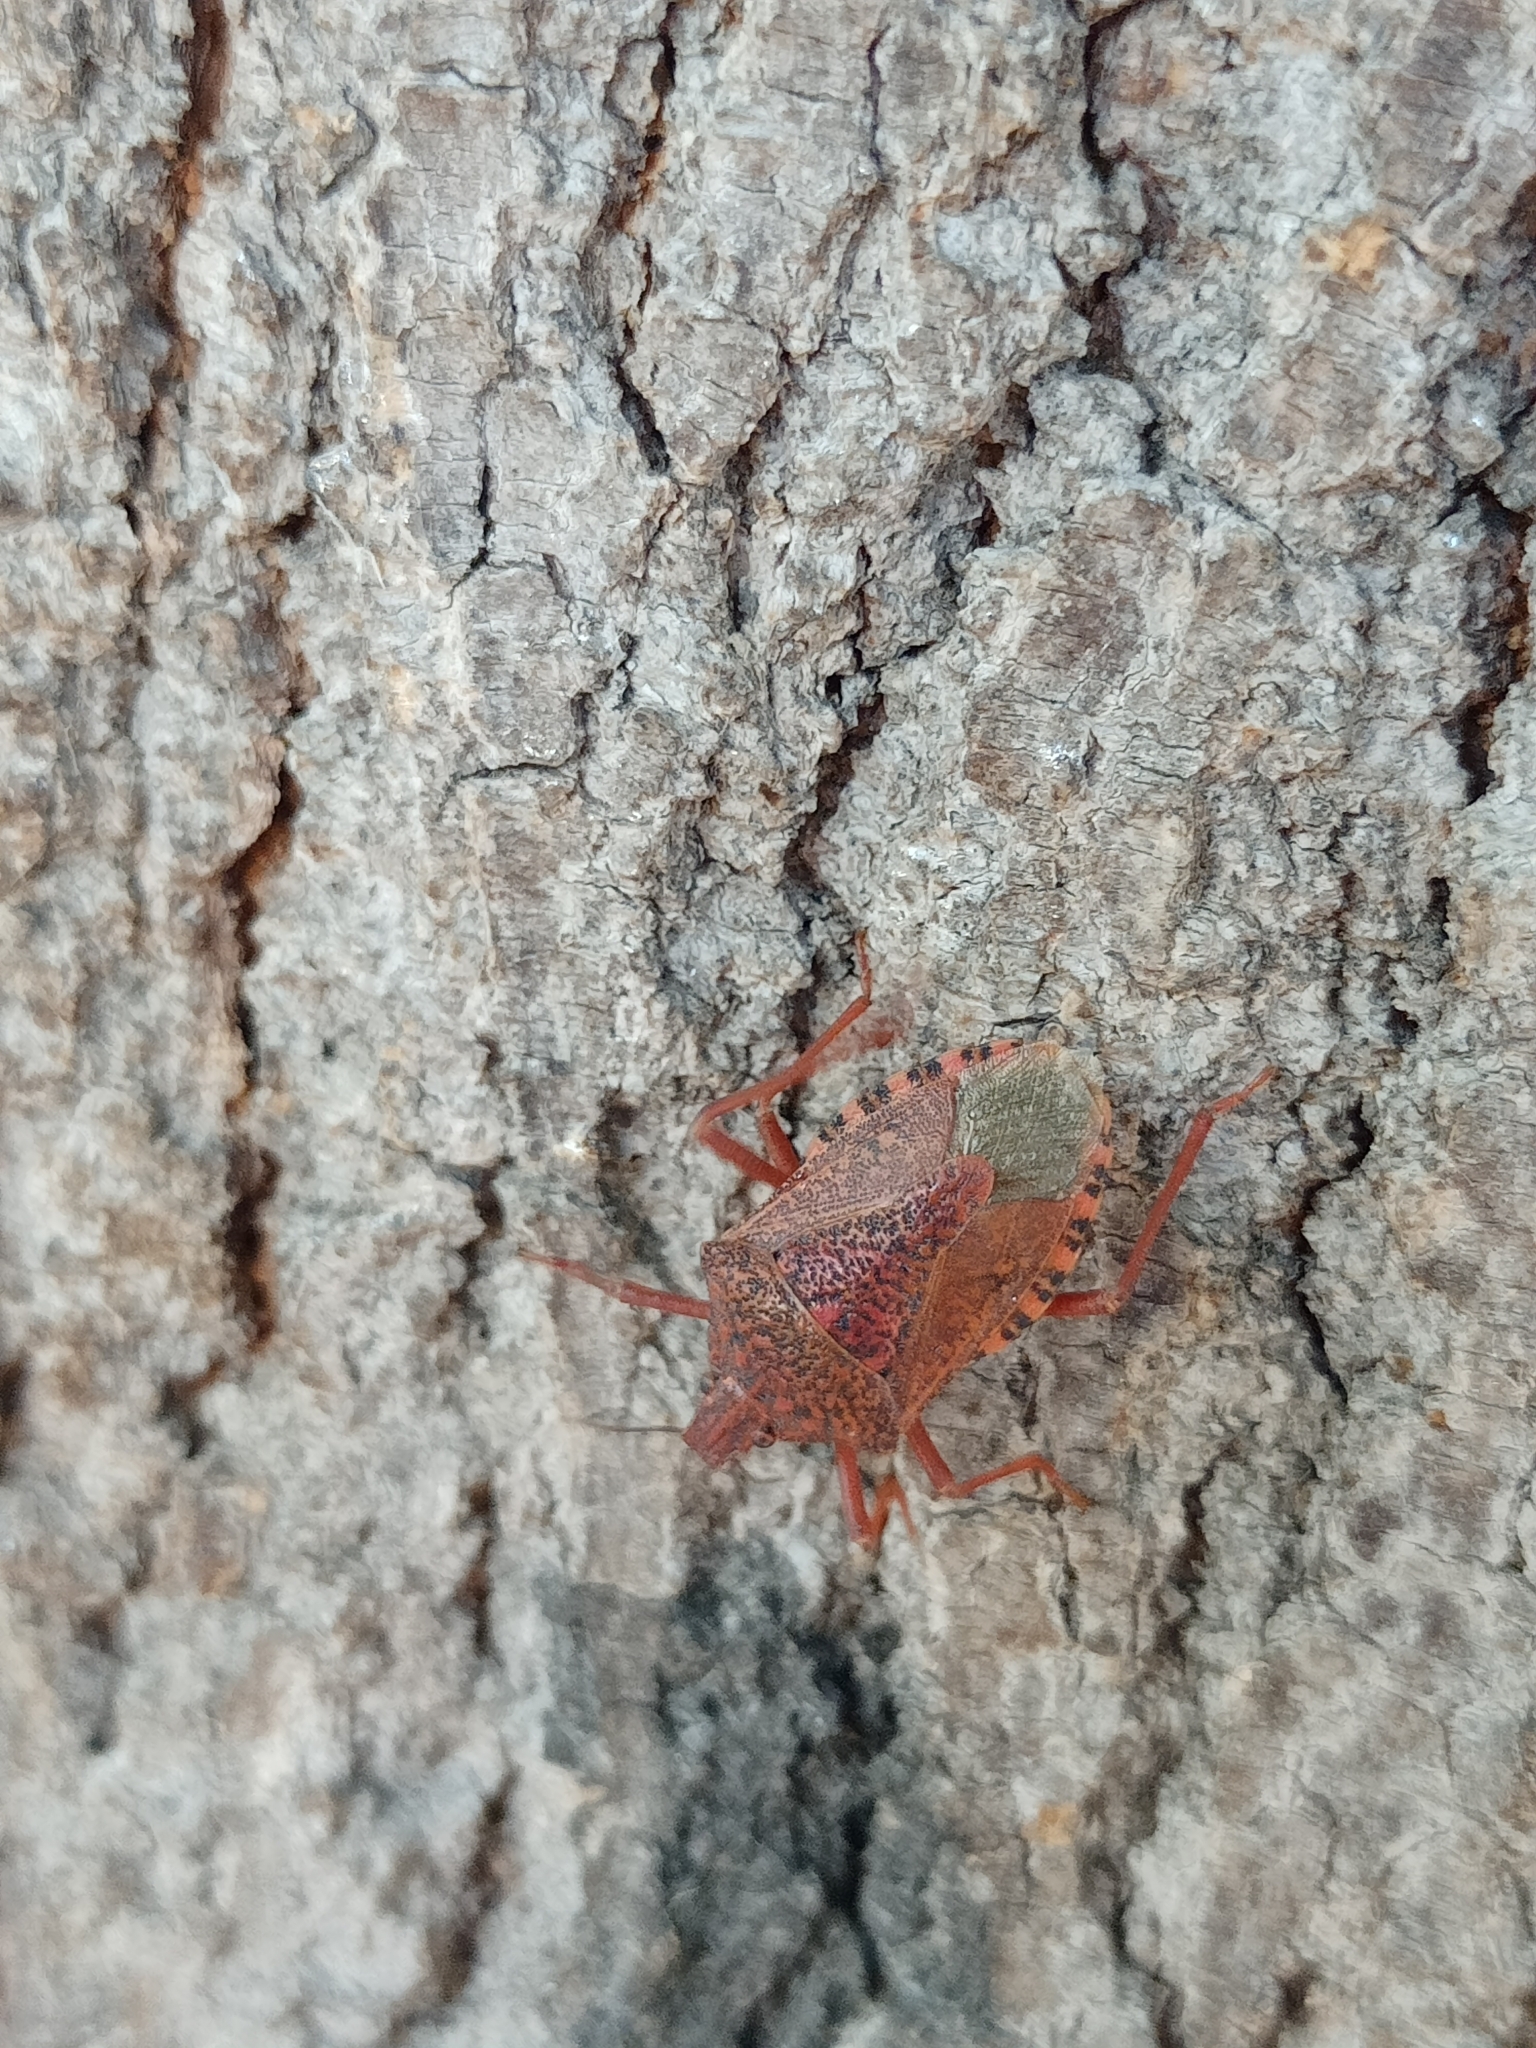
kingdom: Animalia
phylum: Arthropoda
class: Insecta
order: Hemiptera
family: Pentatomidae
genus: Apodiphus
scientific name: Apodiphus
